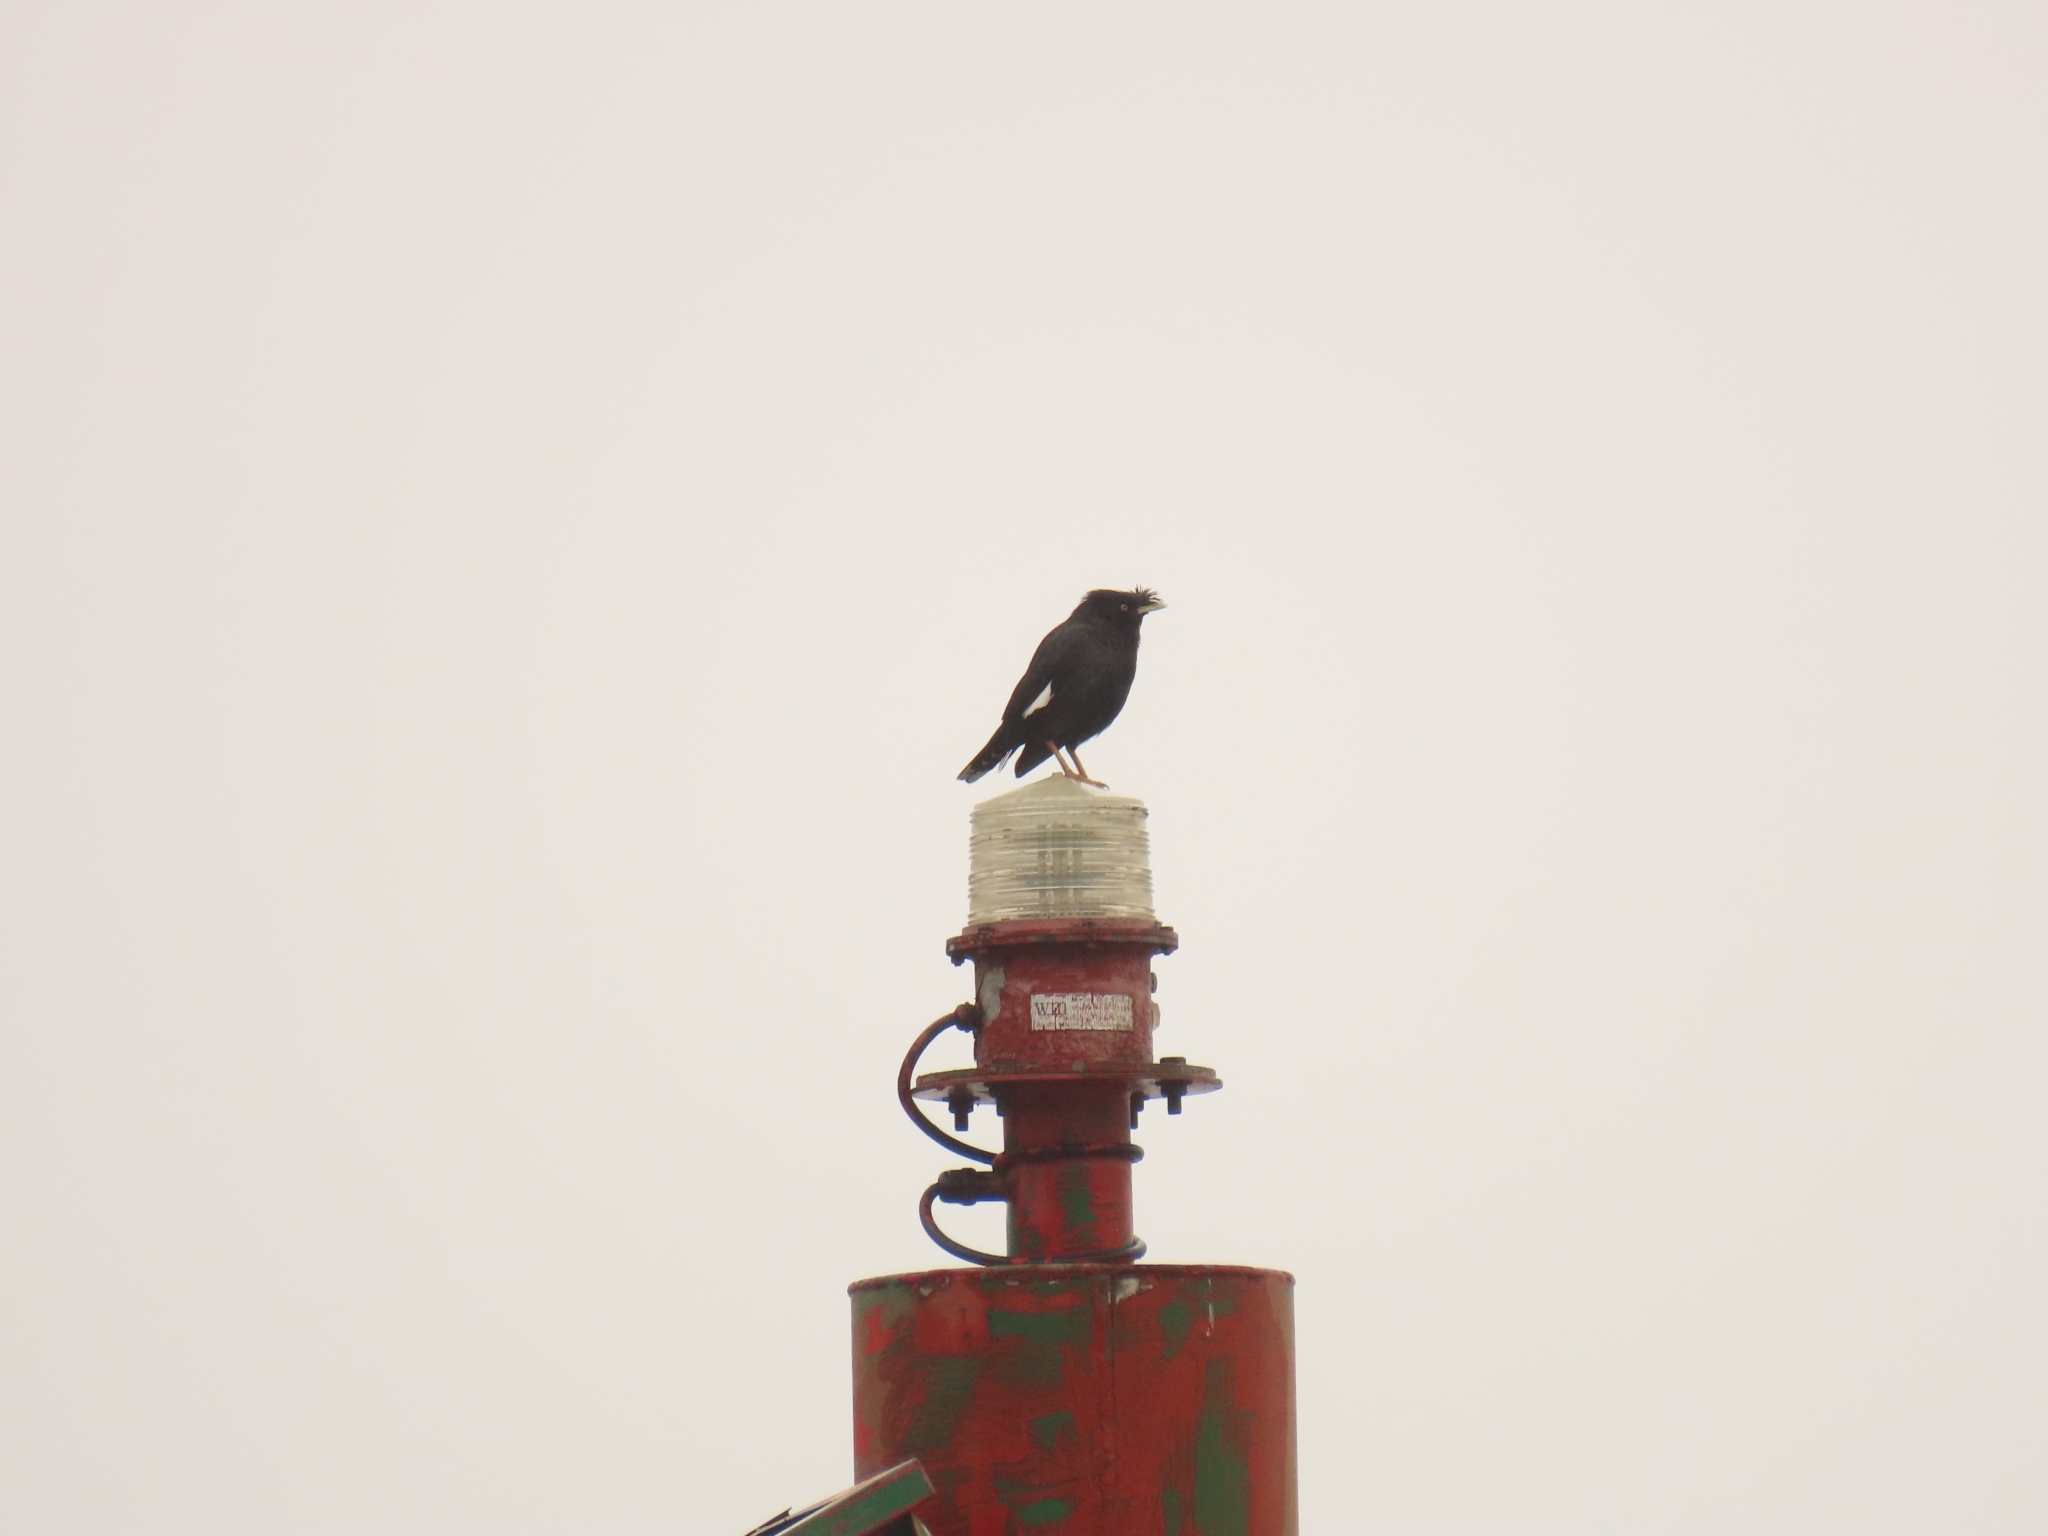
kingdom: Animalia
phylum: Chordata
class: Aves
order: Passeriformes
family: Sturnidae
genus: Acridotheres
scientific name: Acridotheres cristatellus
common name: Crested myna
